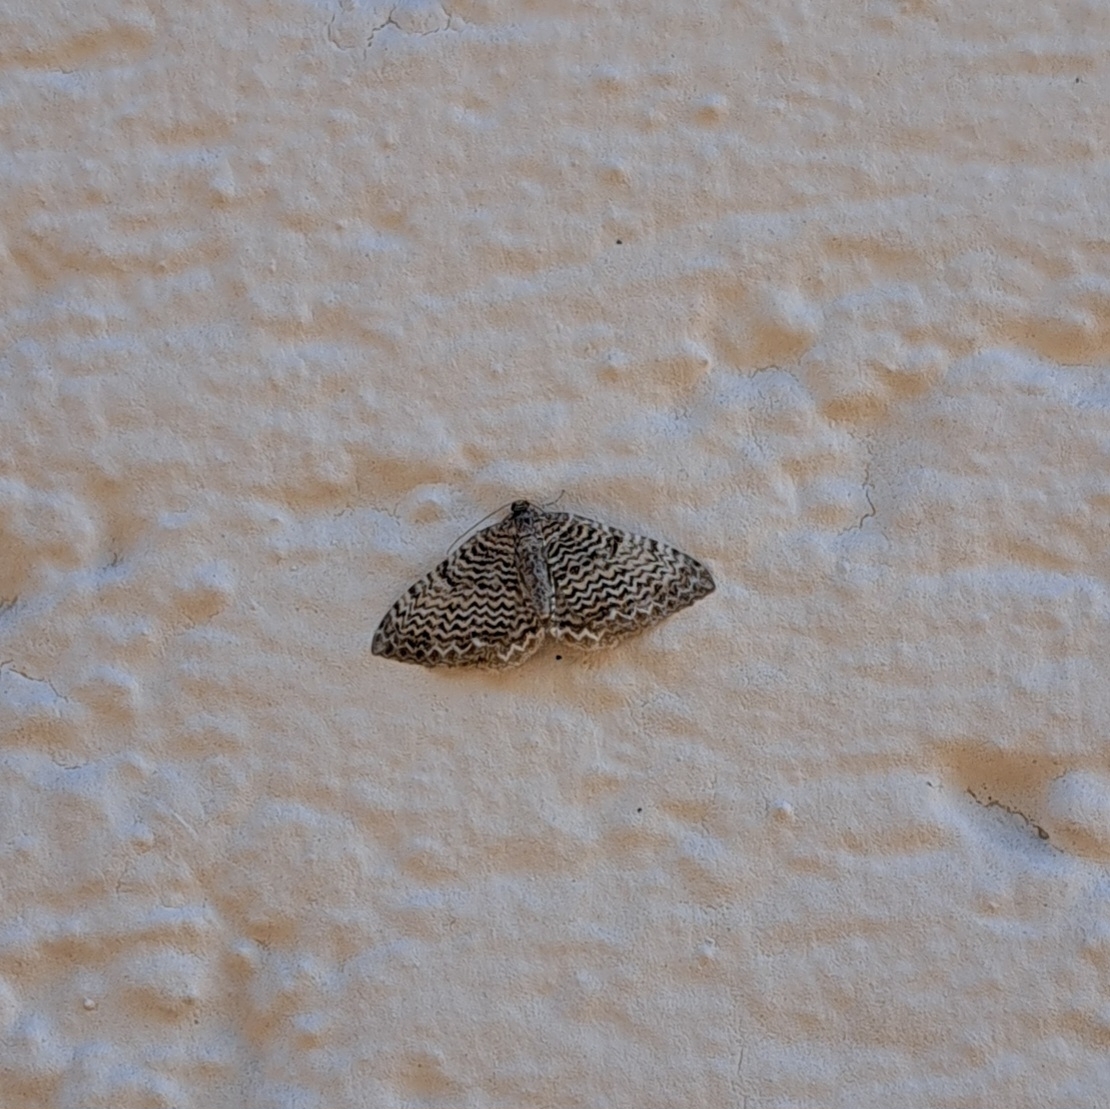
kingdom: Animalia
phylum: Arthropoda
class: Insecta
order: Lepidoptera
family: Geometridae
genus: Rheumaptera
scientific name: Rheumaptera undulata
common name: Scallop shell
